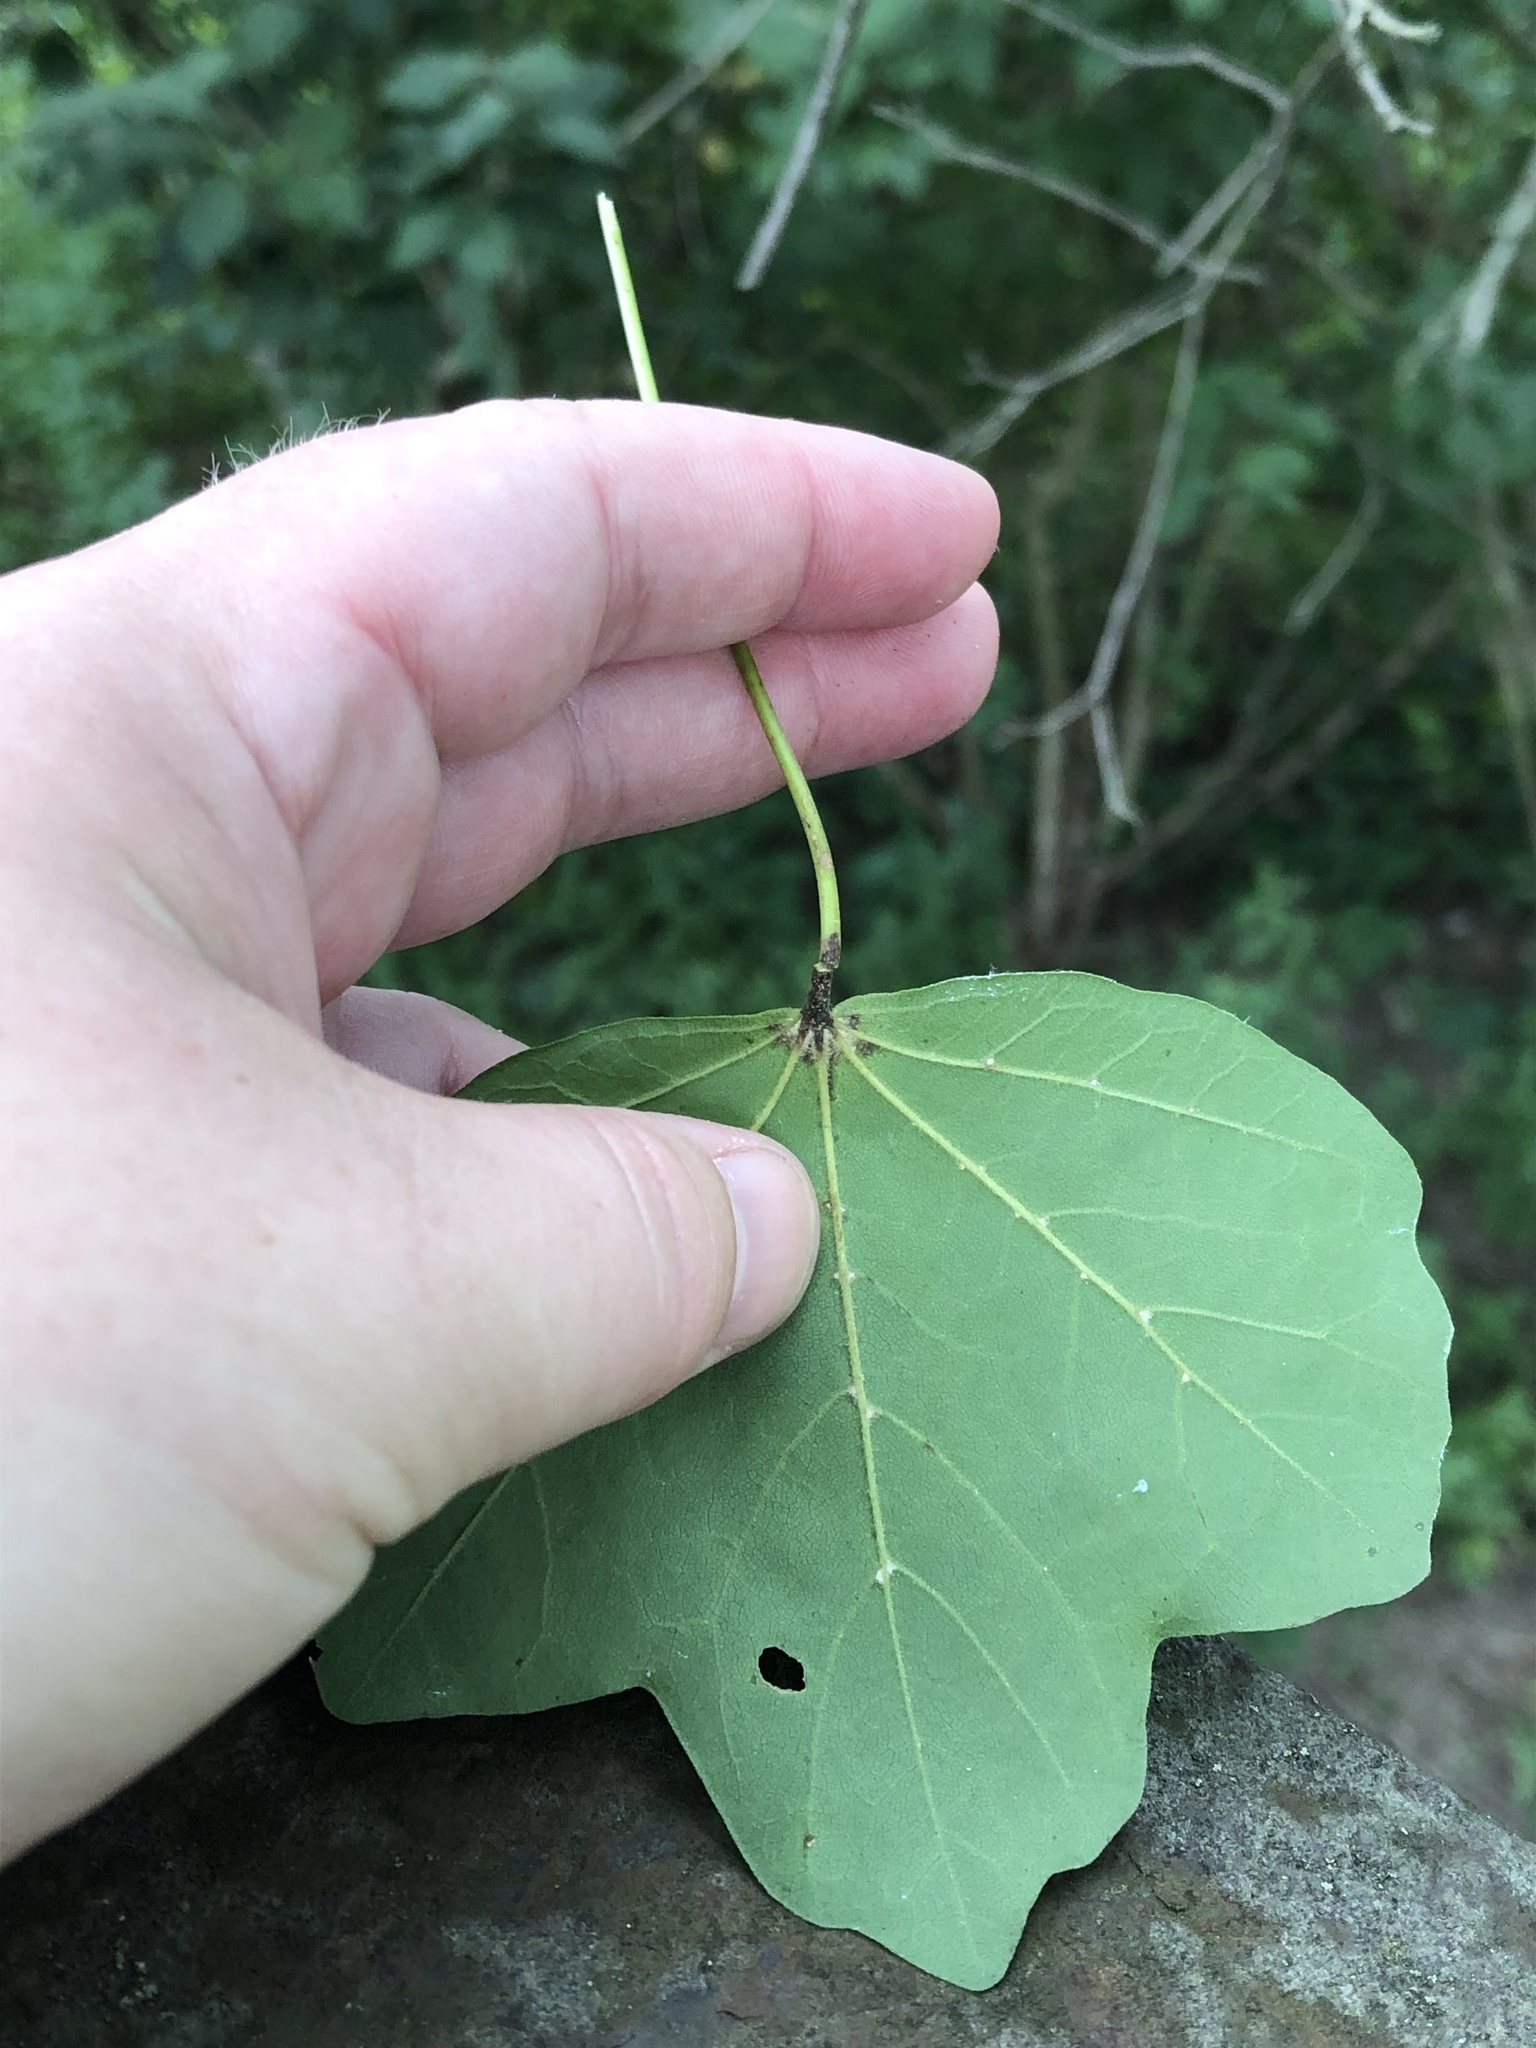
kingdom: Plantae
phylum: Tracheophyta
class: Magnoliopsida
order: Sapindales
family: Sapindaceae
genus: Acer
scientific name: Acer campestre
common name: Field maple
